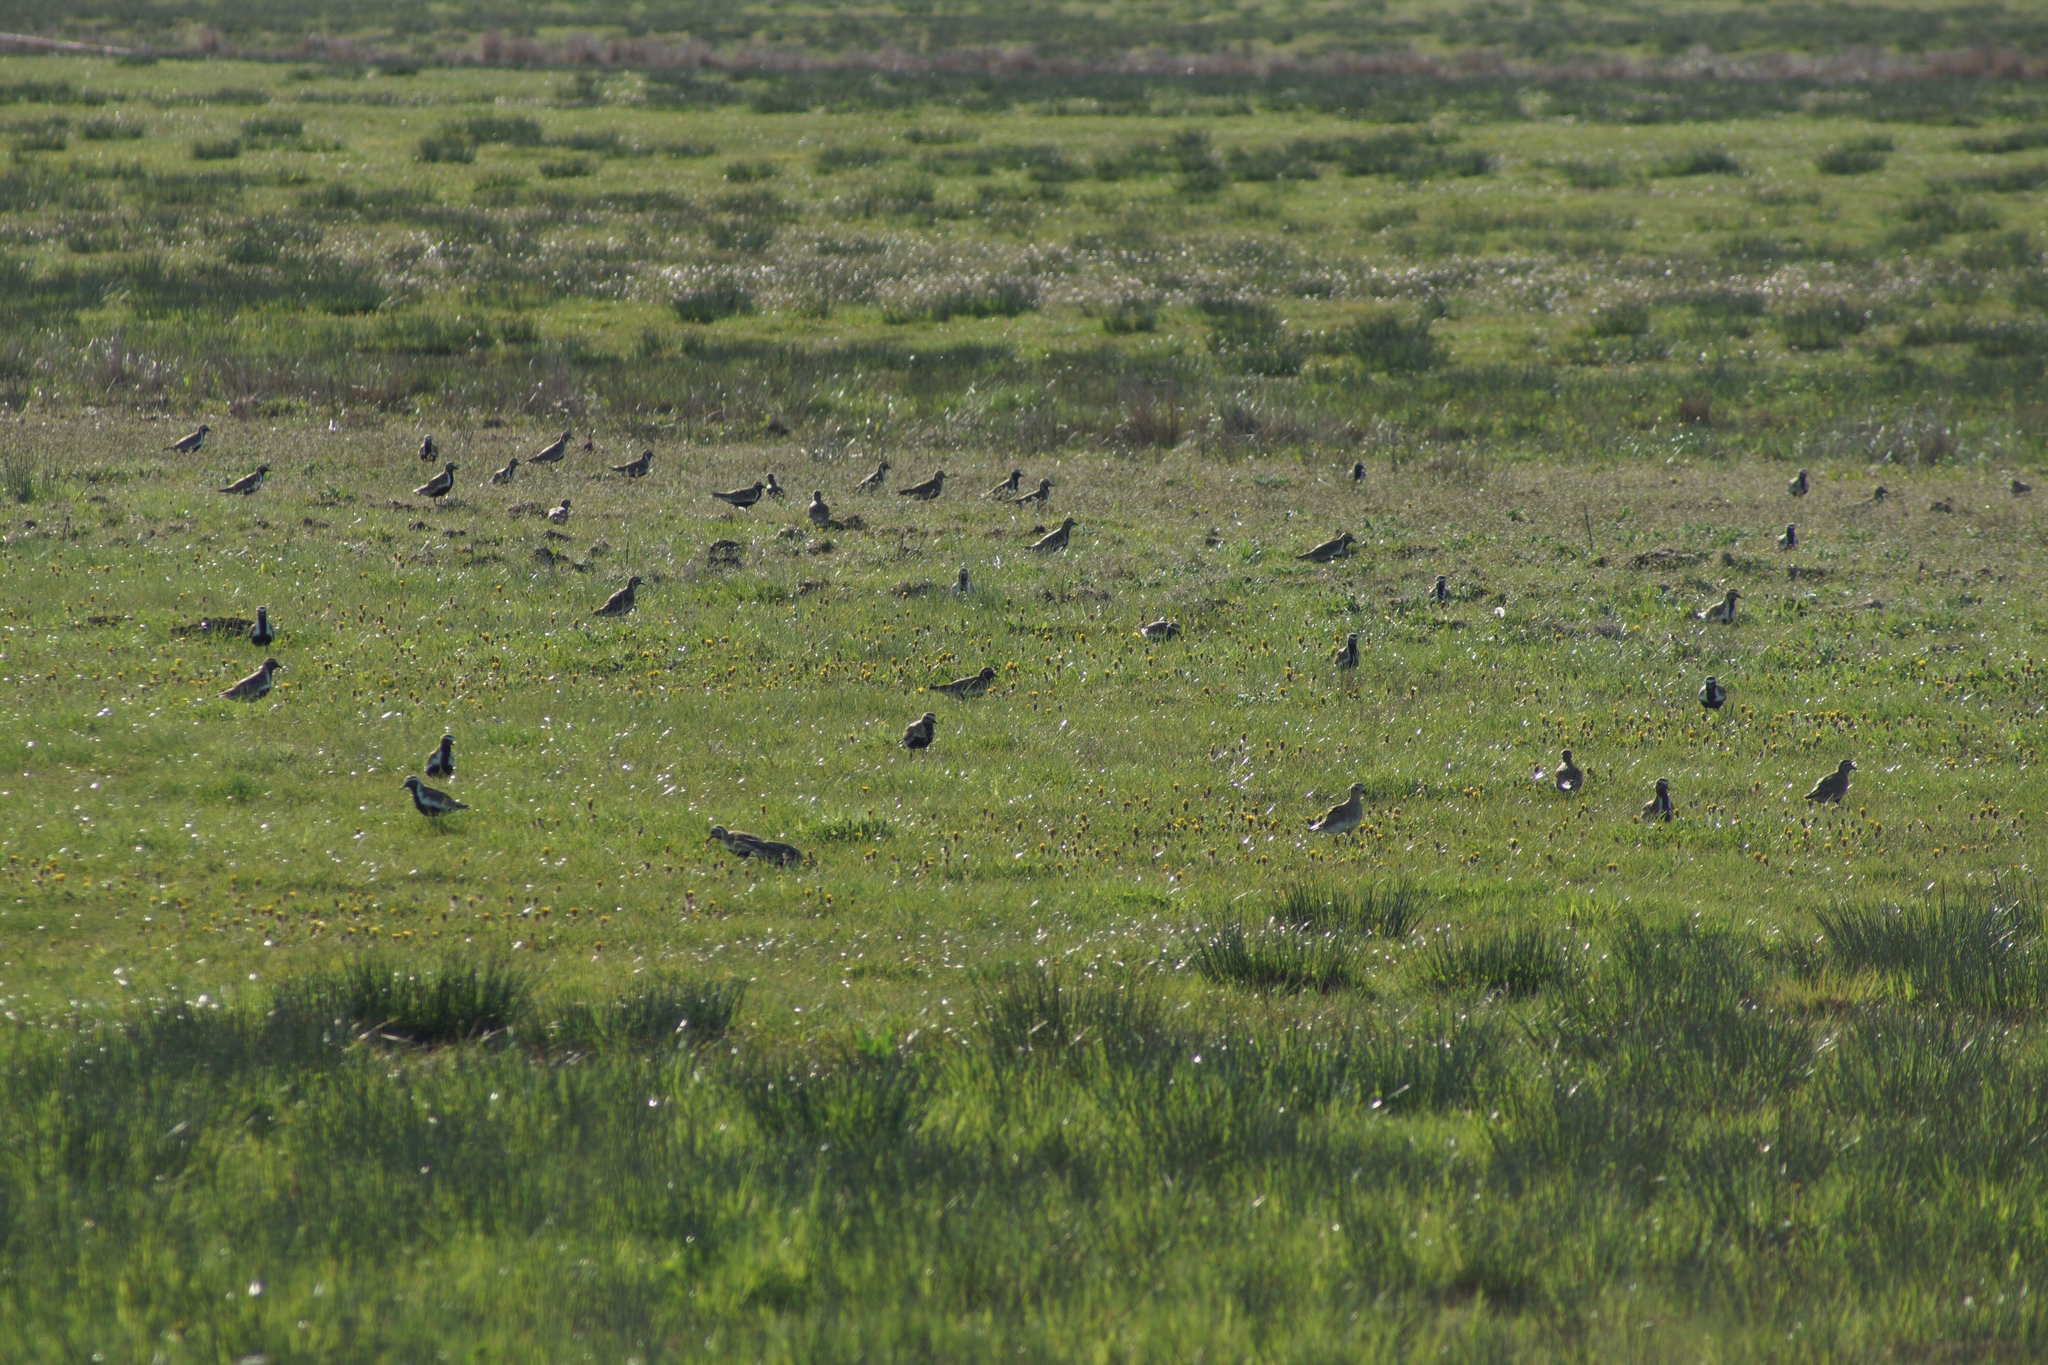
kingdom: Animalia
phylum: Chordata
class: Aves
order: Charadriiformes
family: Charadriidae
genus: Pluvialis
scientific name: Pluvialis apricaria
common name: European golden plover
